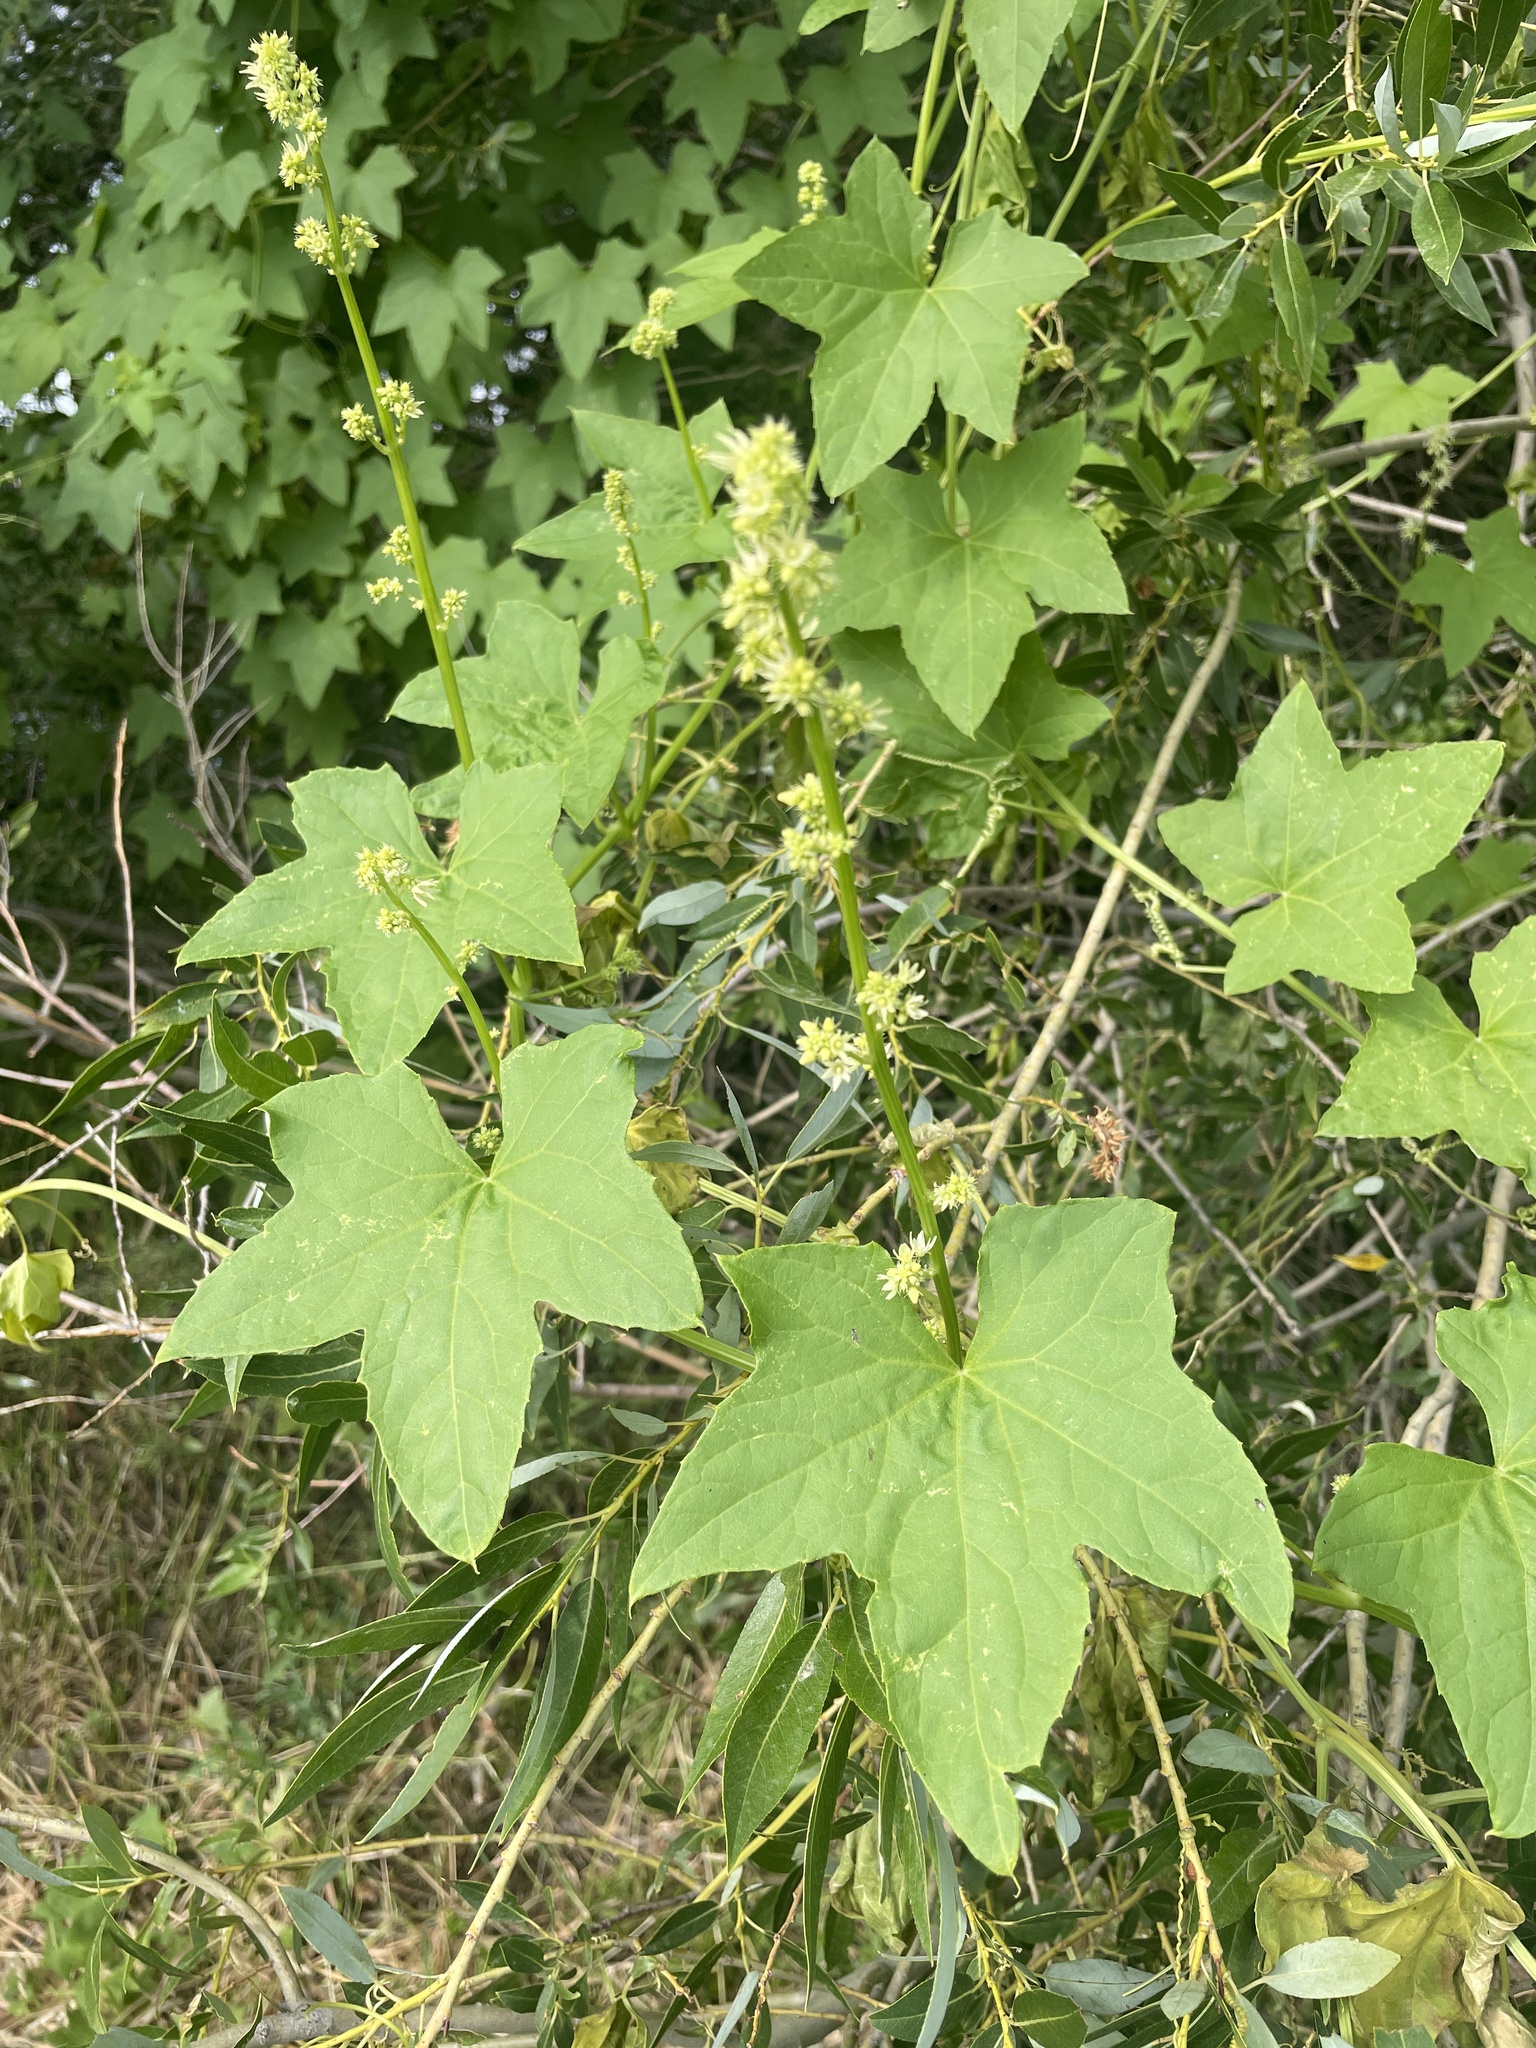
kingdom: Plantae
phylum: Tracheophyta
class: Magnoliopsida
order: Cucurbitales
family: Cucurbitaceae
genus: Echinocystis
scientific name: Echinocystis lobata
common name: Wild cucumber
